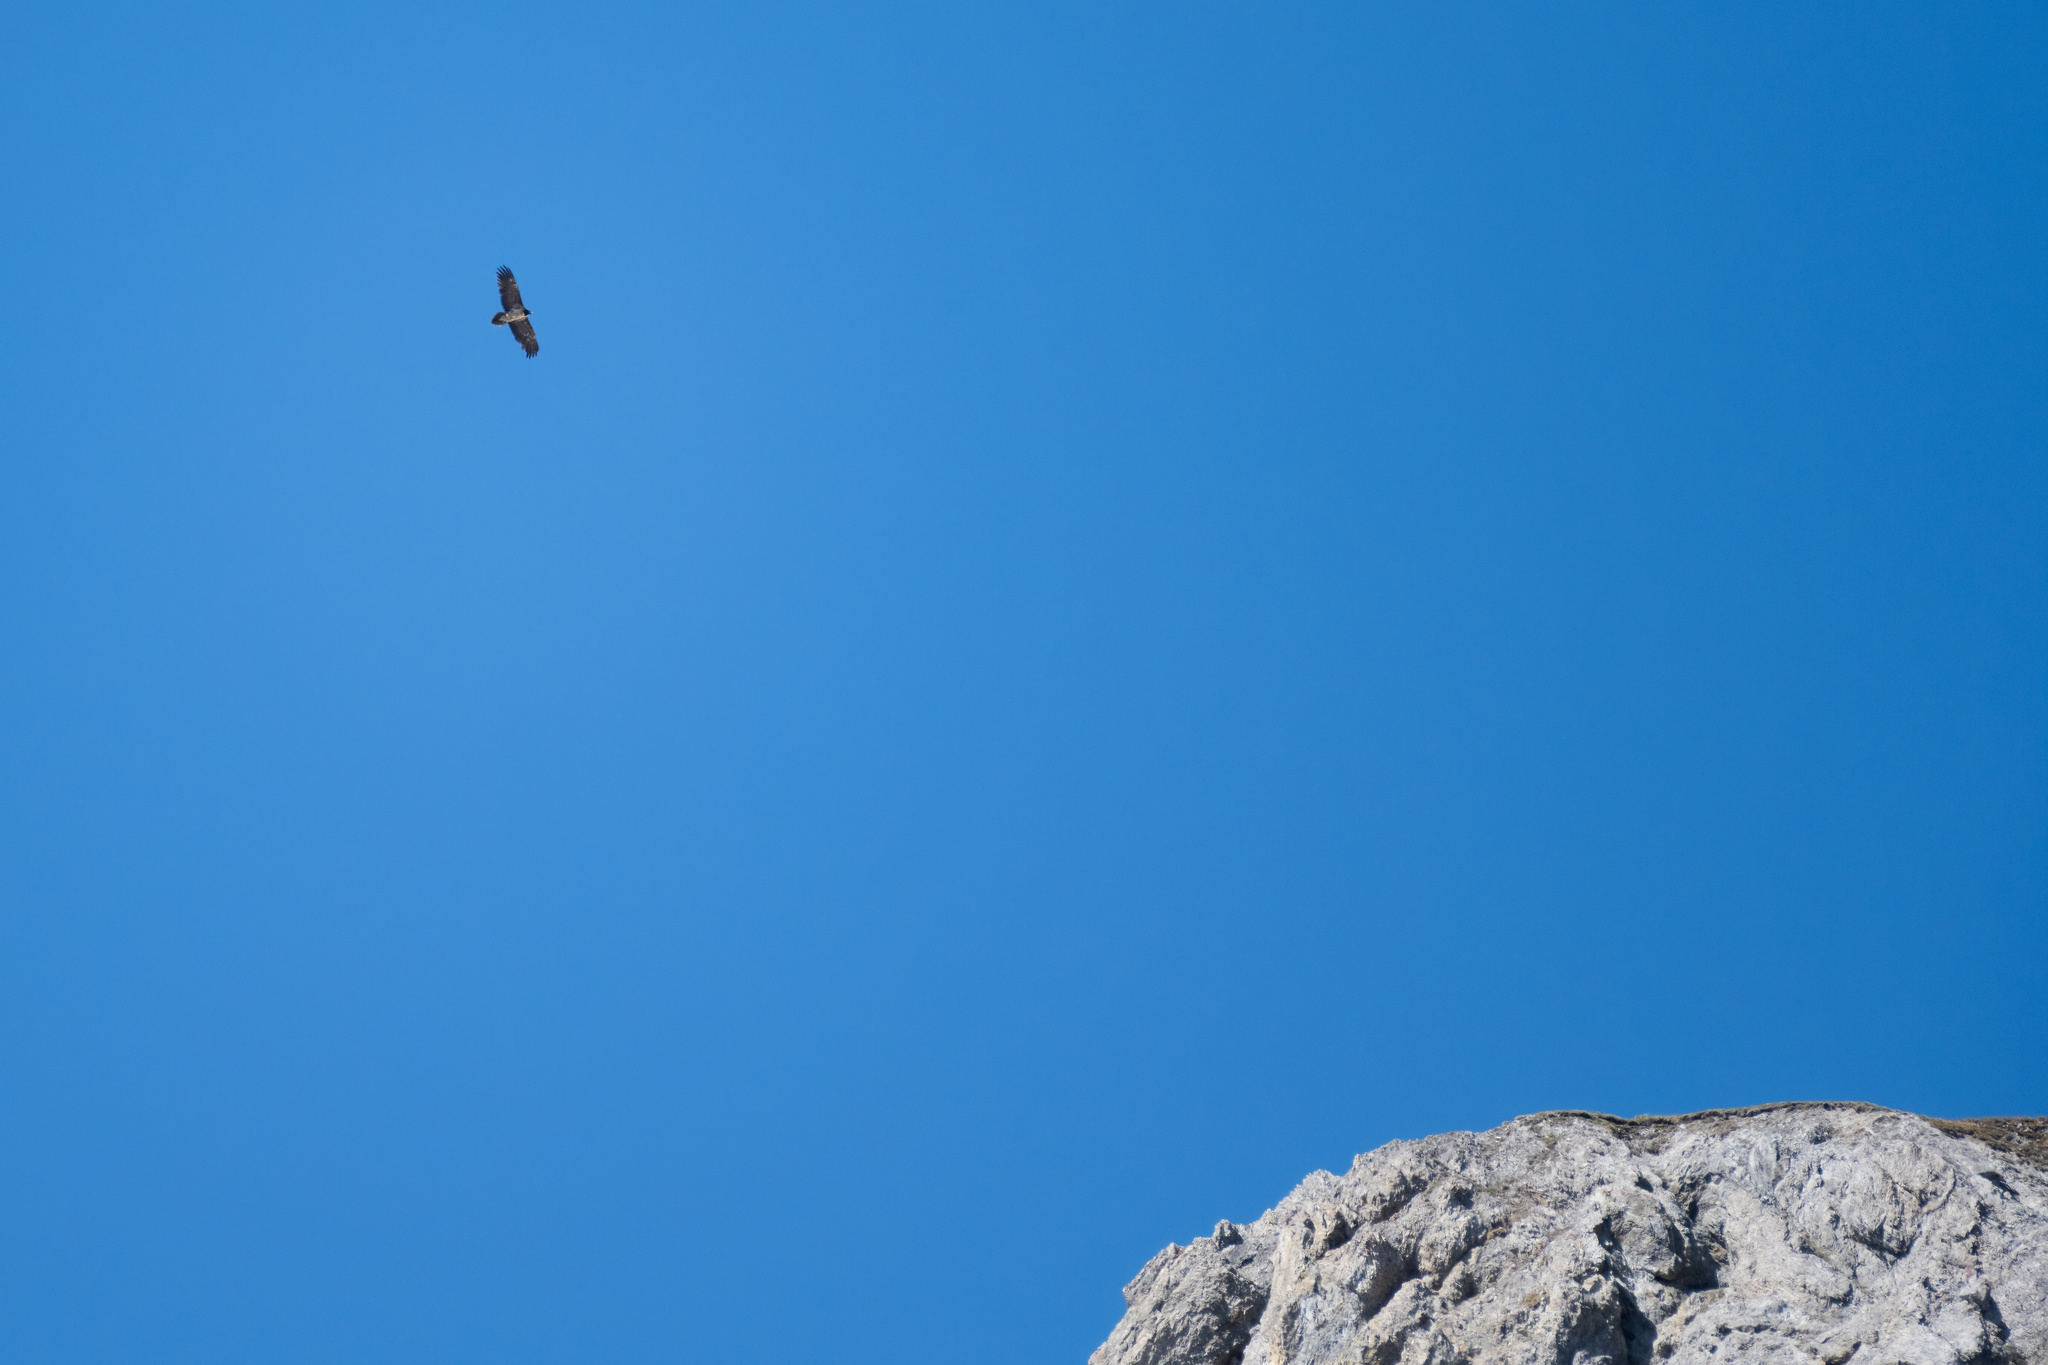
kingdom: Animalia
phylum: Chordata
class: Aves
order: Accipitriformes
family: Accipitridae
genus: Gypaetus
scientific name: Gypaetus barbatus
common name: Bearded vulture
